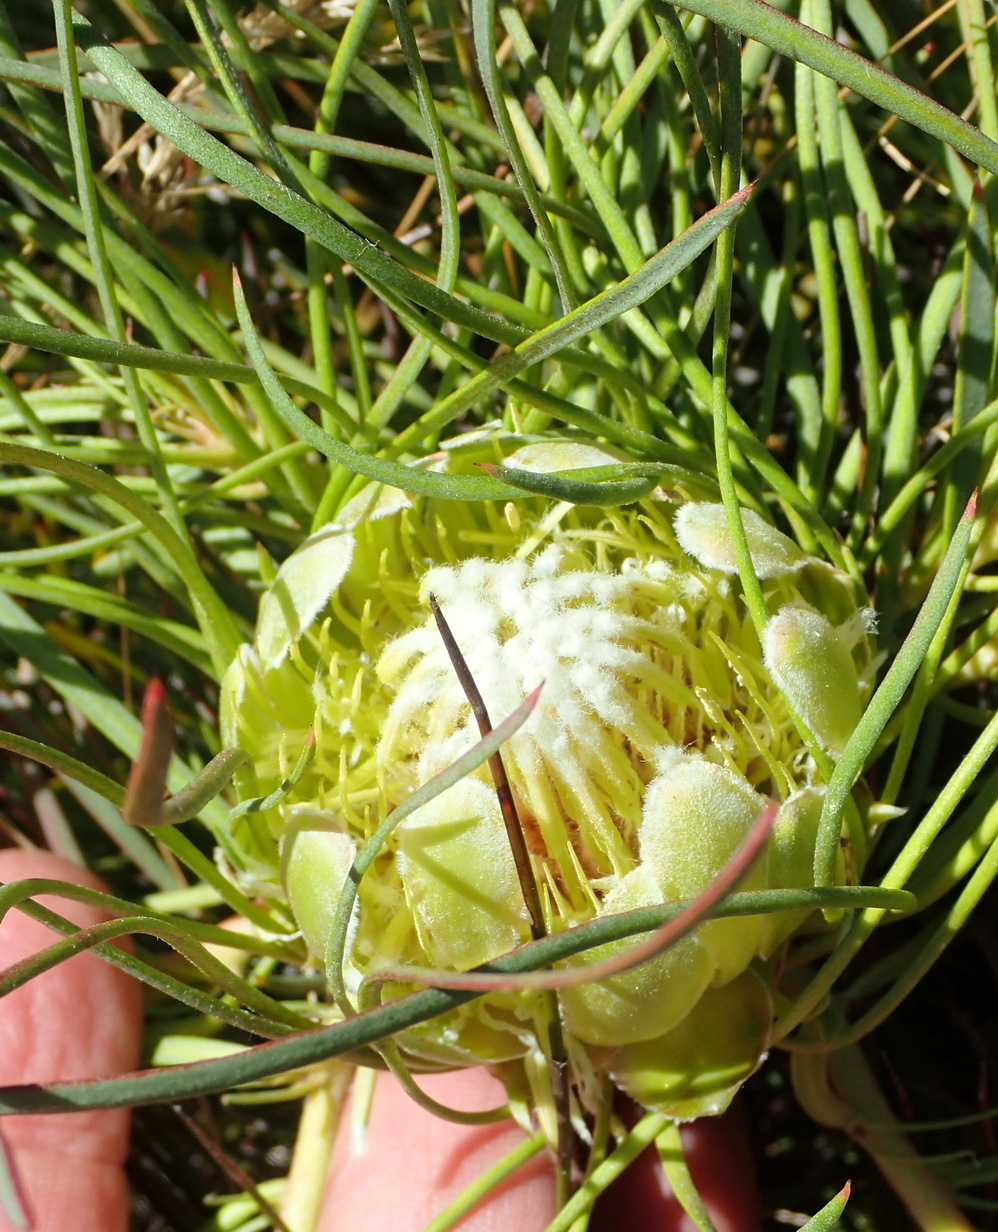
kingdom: Plantae
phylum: Tracheophyta
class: Magnoliopsida
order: Proteales
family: Proteaceae
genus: Protea
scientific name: Protea montana
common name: Swartberg sugarbush
